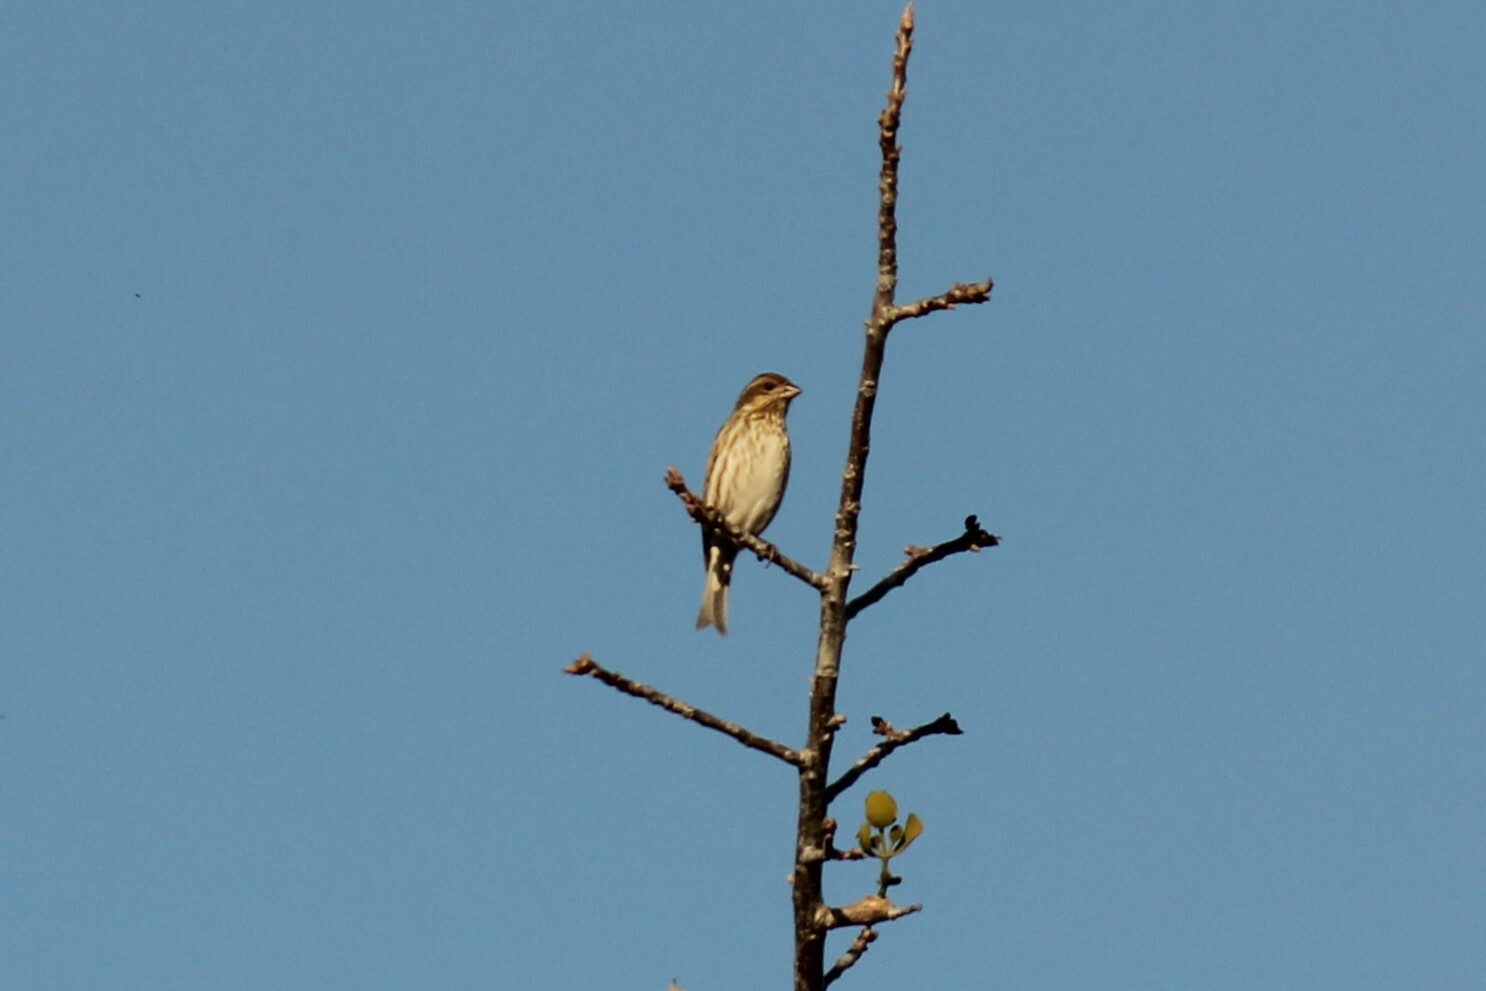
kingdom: Animalia
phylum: Chordata
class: Aves
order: Passeriformes
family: Fringillidae
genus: Haemorhous
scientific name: Haemorhous purpureus
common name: Purple finch
